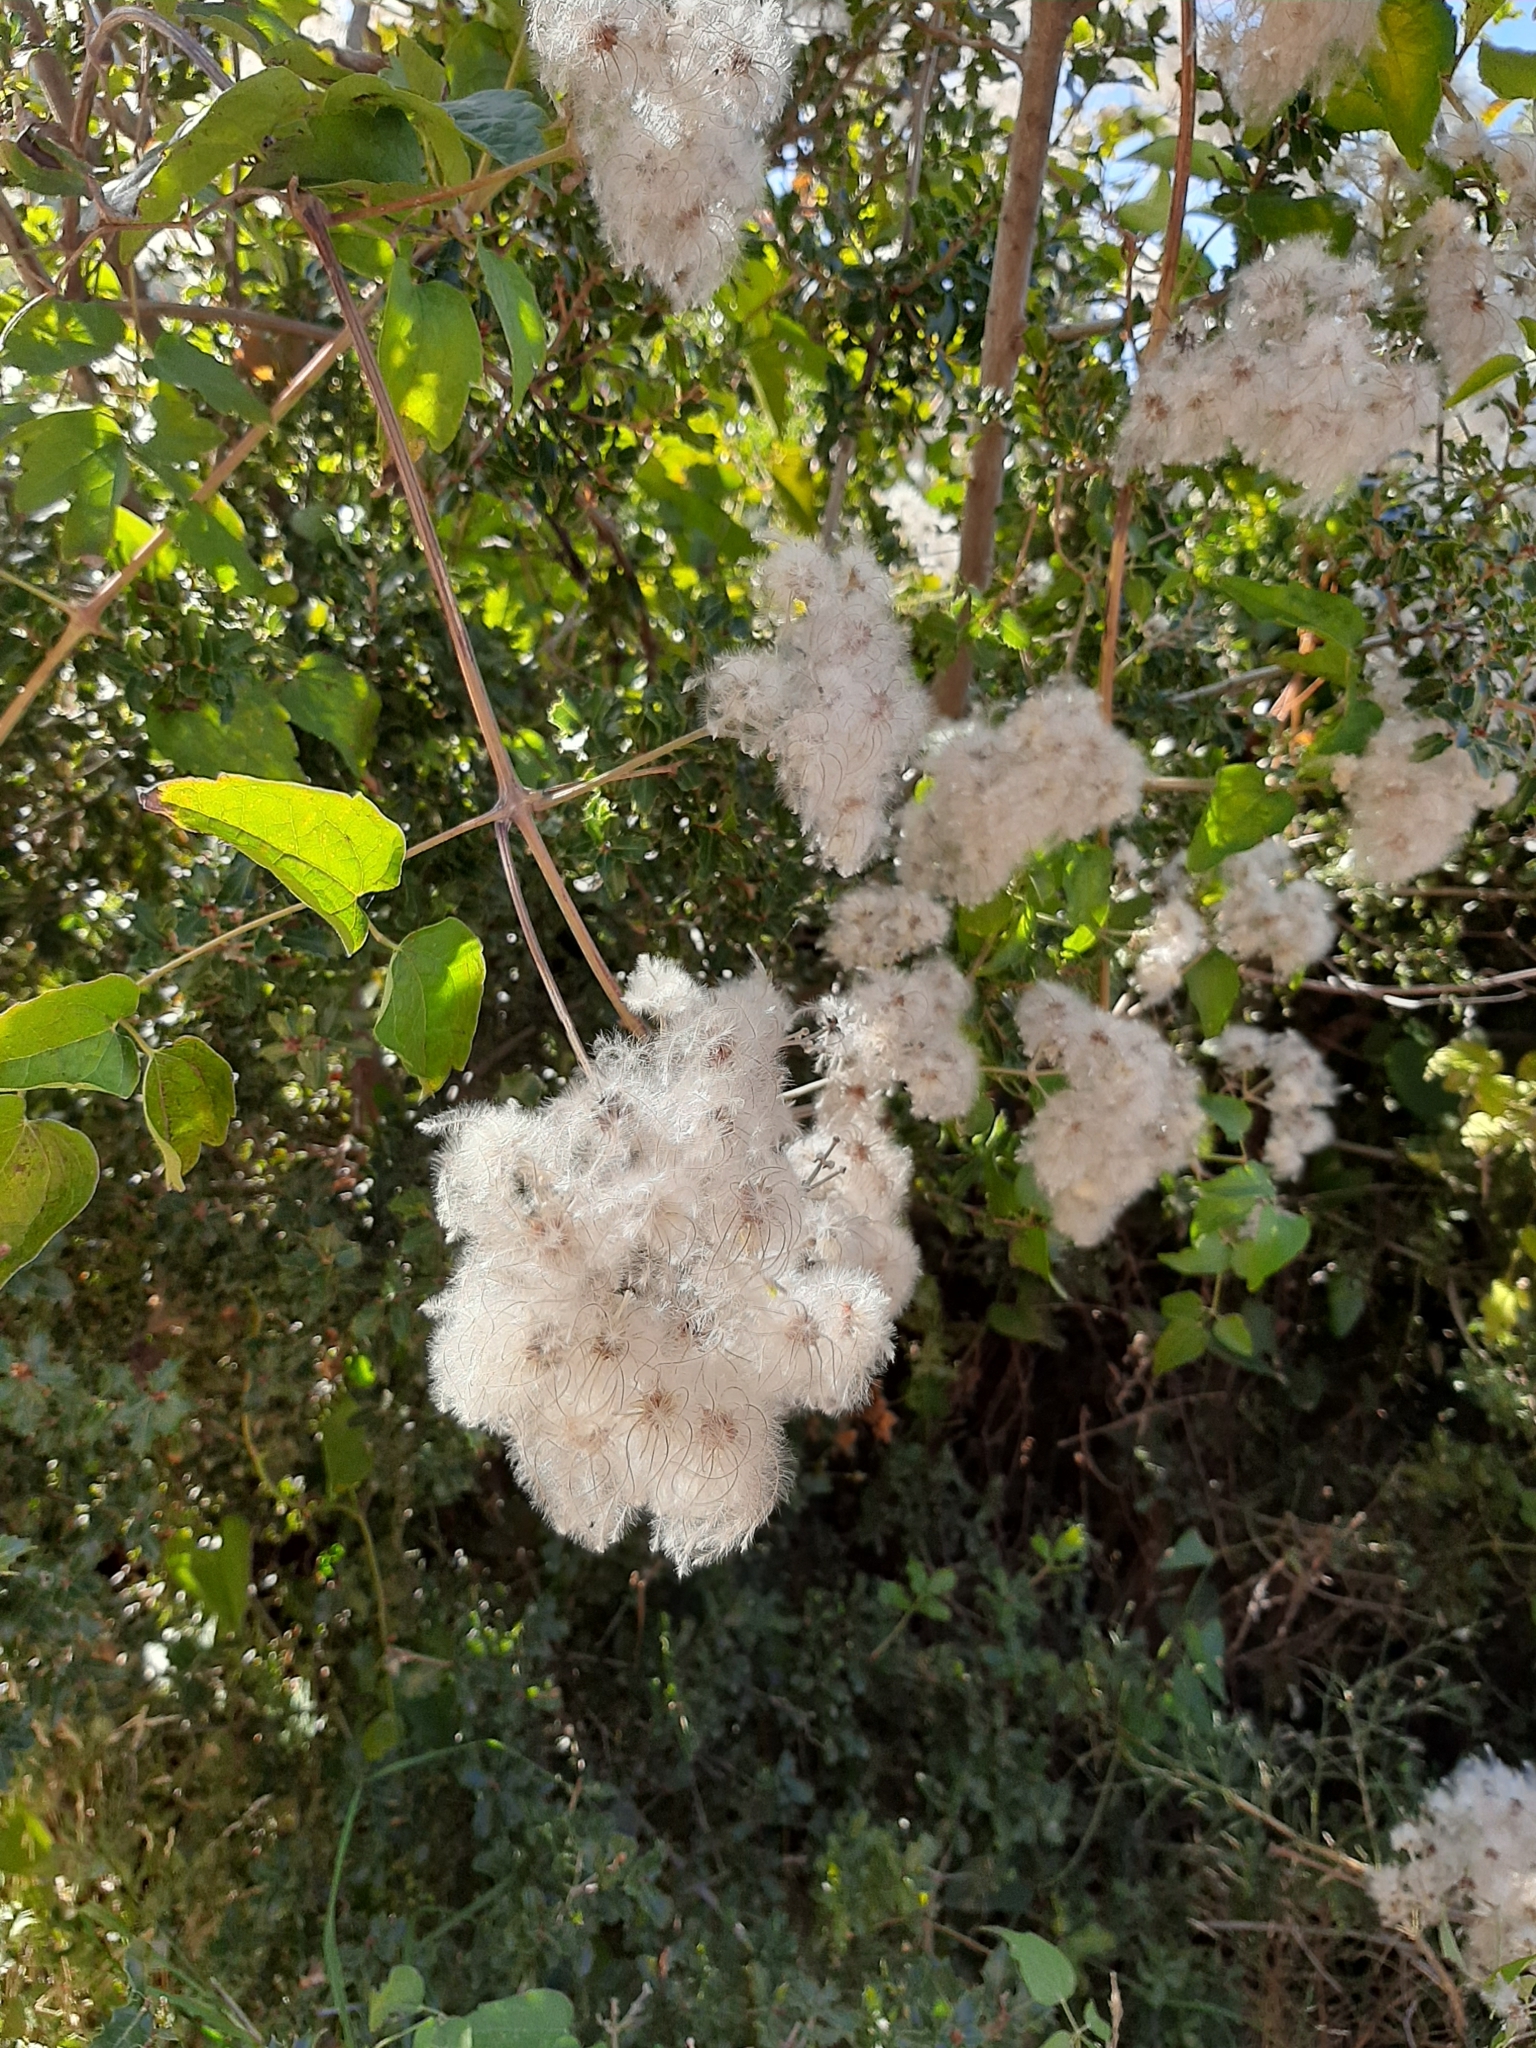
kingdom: Plantae
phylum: Tracheophyta
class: Magnoliopsida
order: Ranunculales
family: Ranunculaceae
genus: Clematis
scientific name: Clematis vitalba
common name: Evergreen clematis
